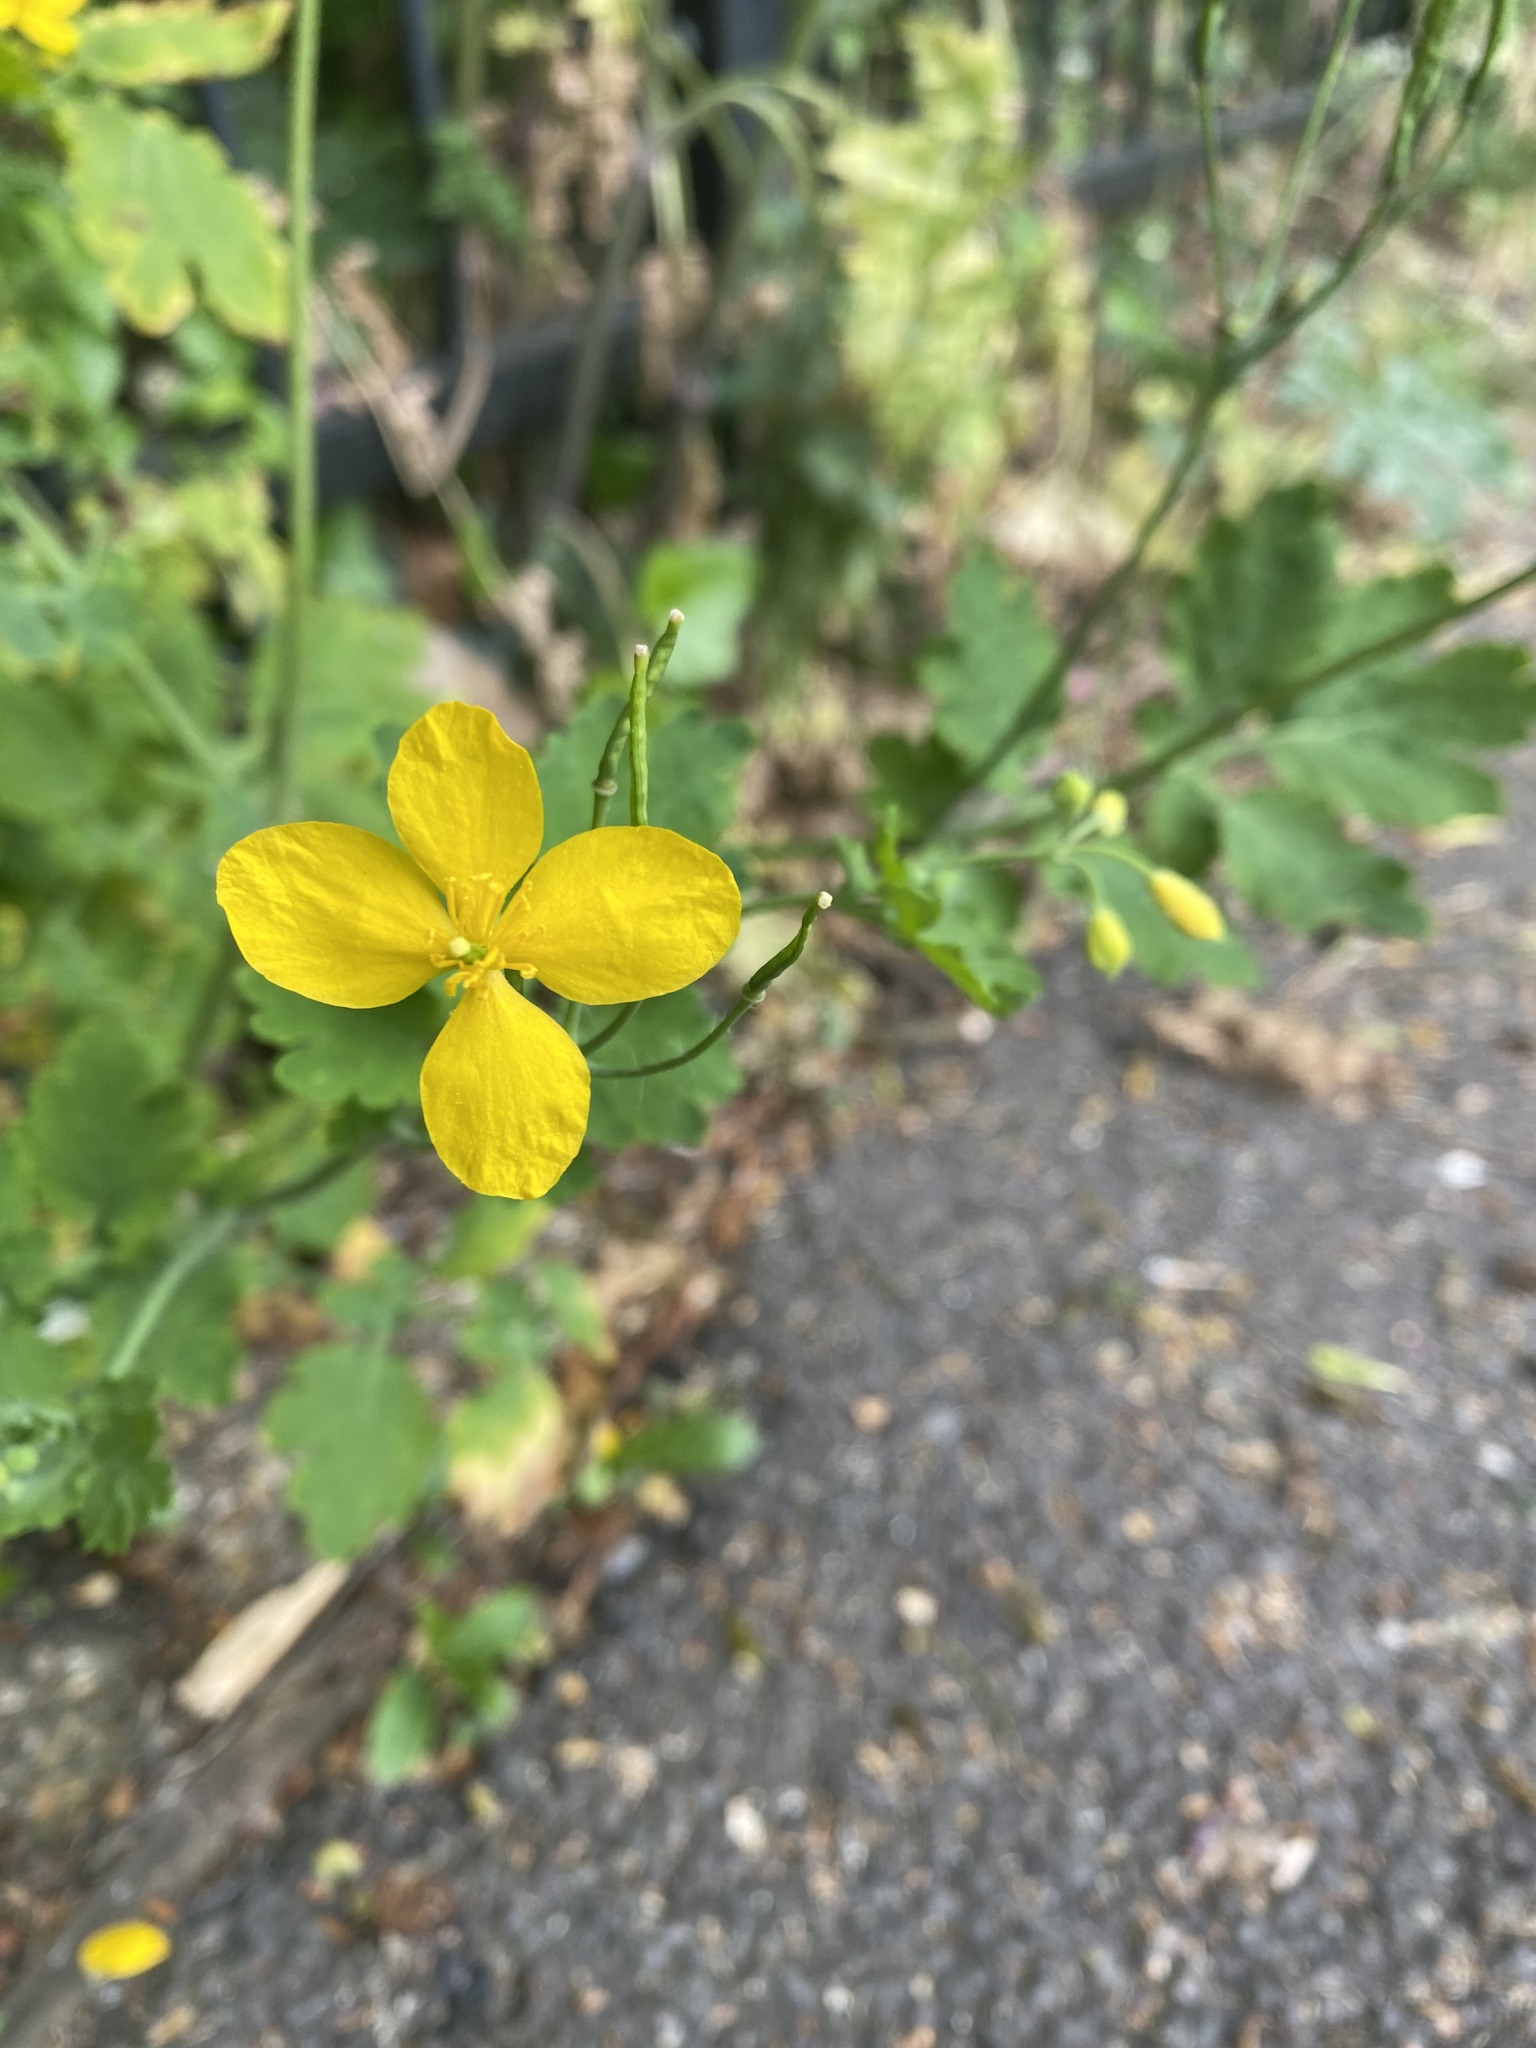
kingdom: Plantae
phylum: Tracheophyta
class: Magnoliopsida
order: Ranunculales
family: Papaveraceae
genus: Chelidonium
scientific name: Chelidonium majus
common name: Greater celandine
